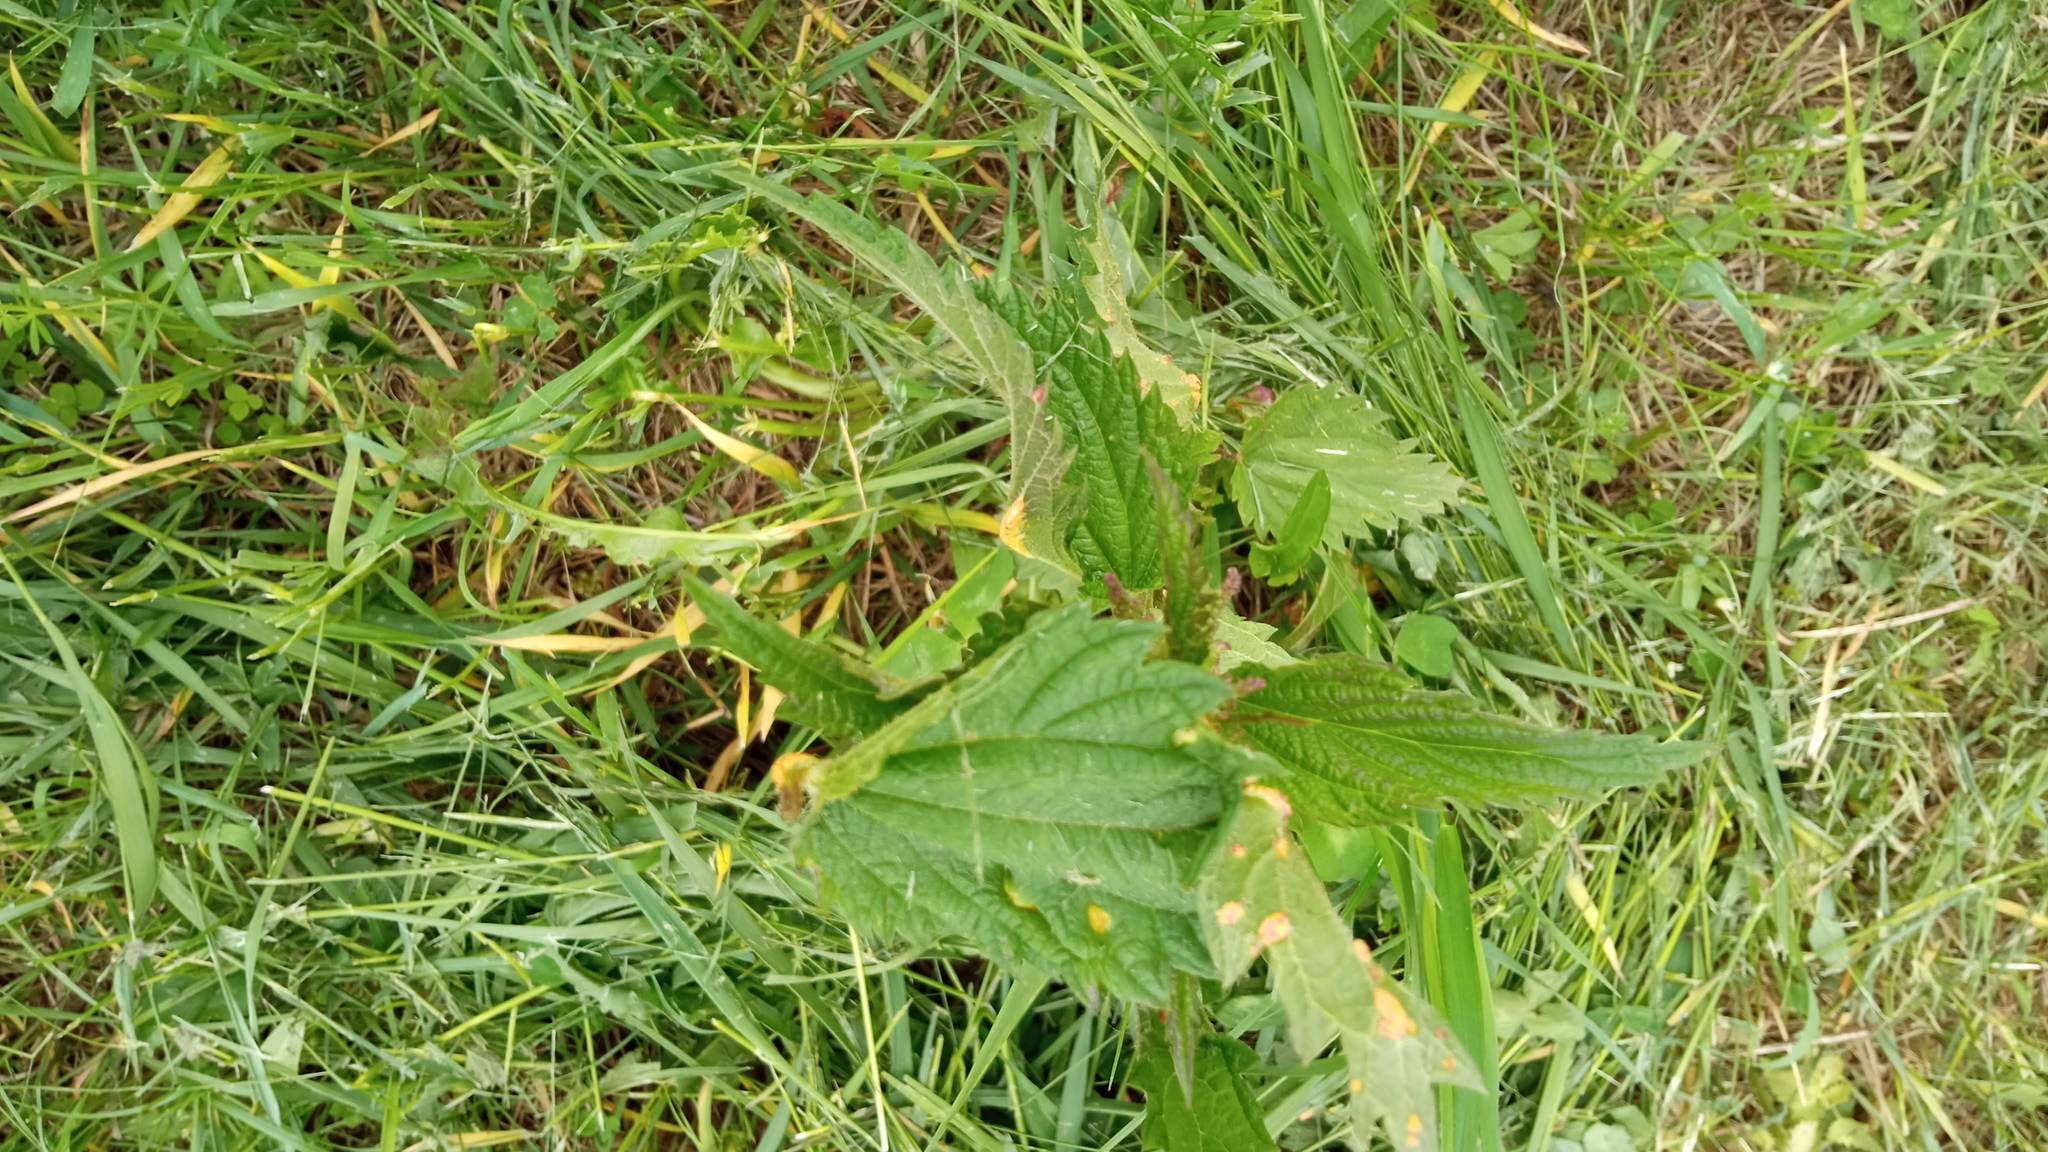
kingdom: Fungi
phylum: Basidiomycota
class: Pucciniomycetes
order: Pucciniales
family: Pucciniaceae
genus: Puccinia
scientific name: Puccinia urticata
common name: Nettle clustercup rust fungus
